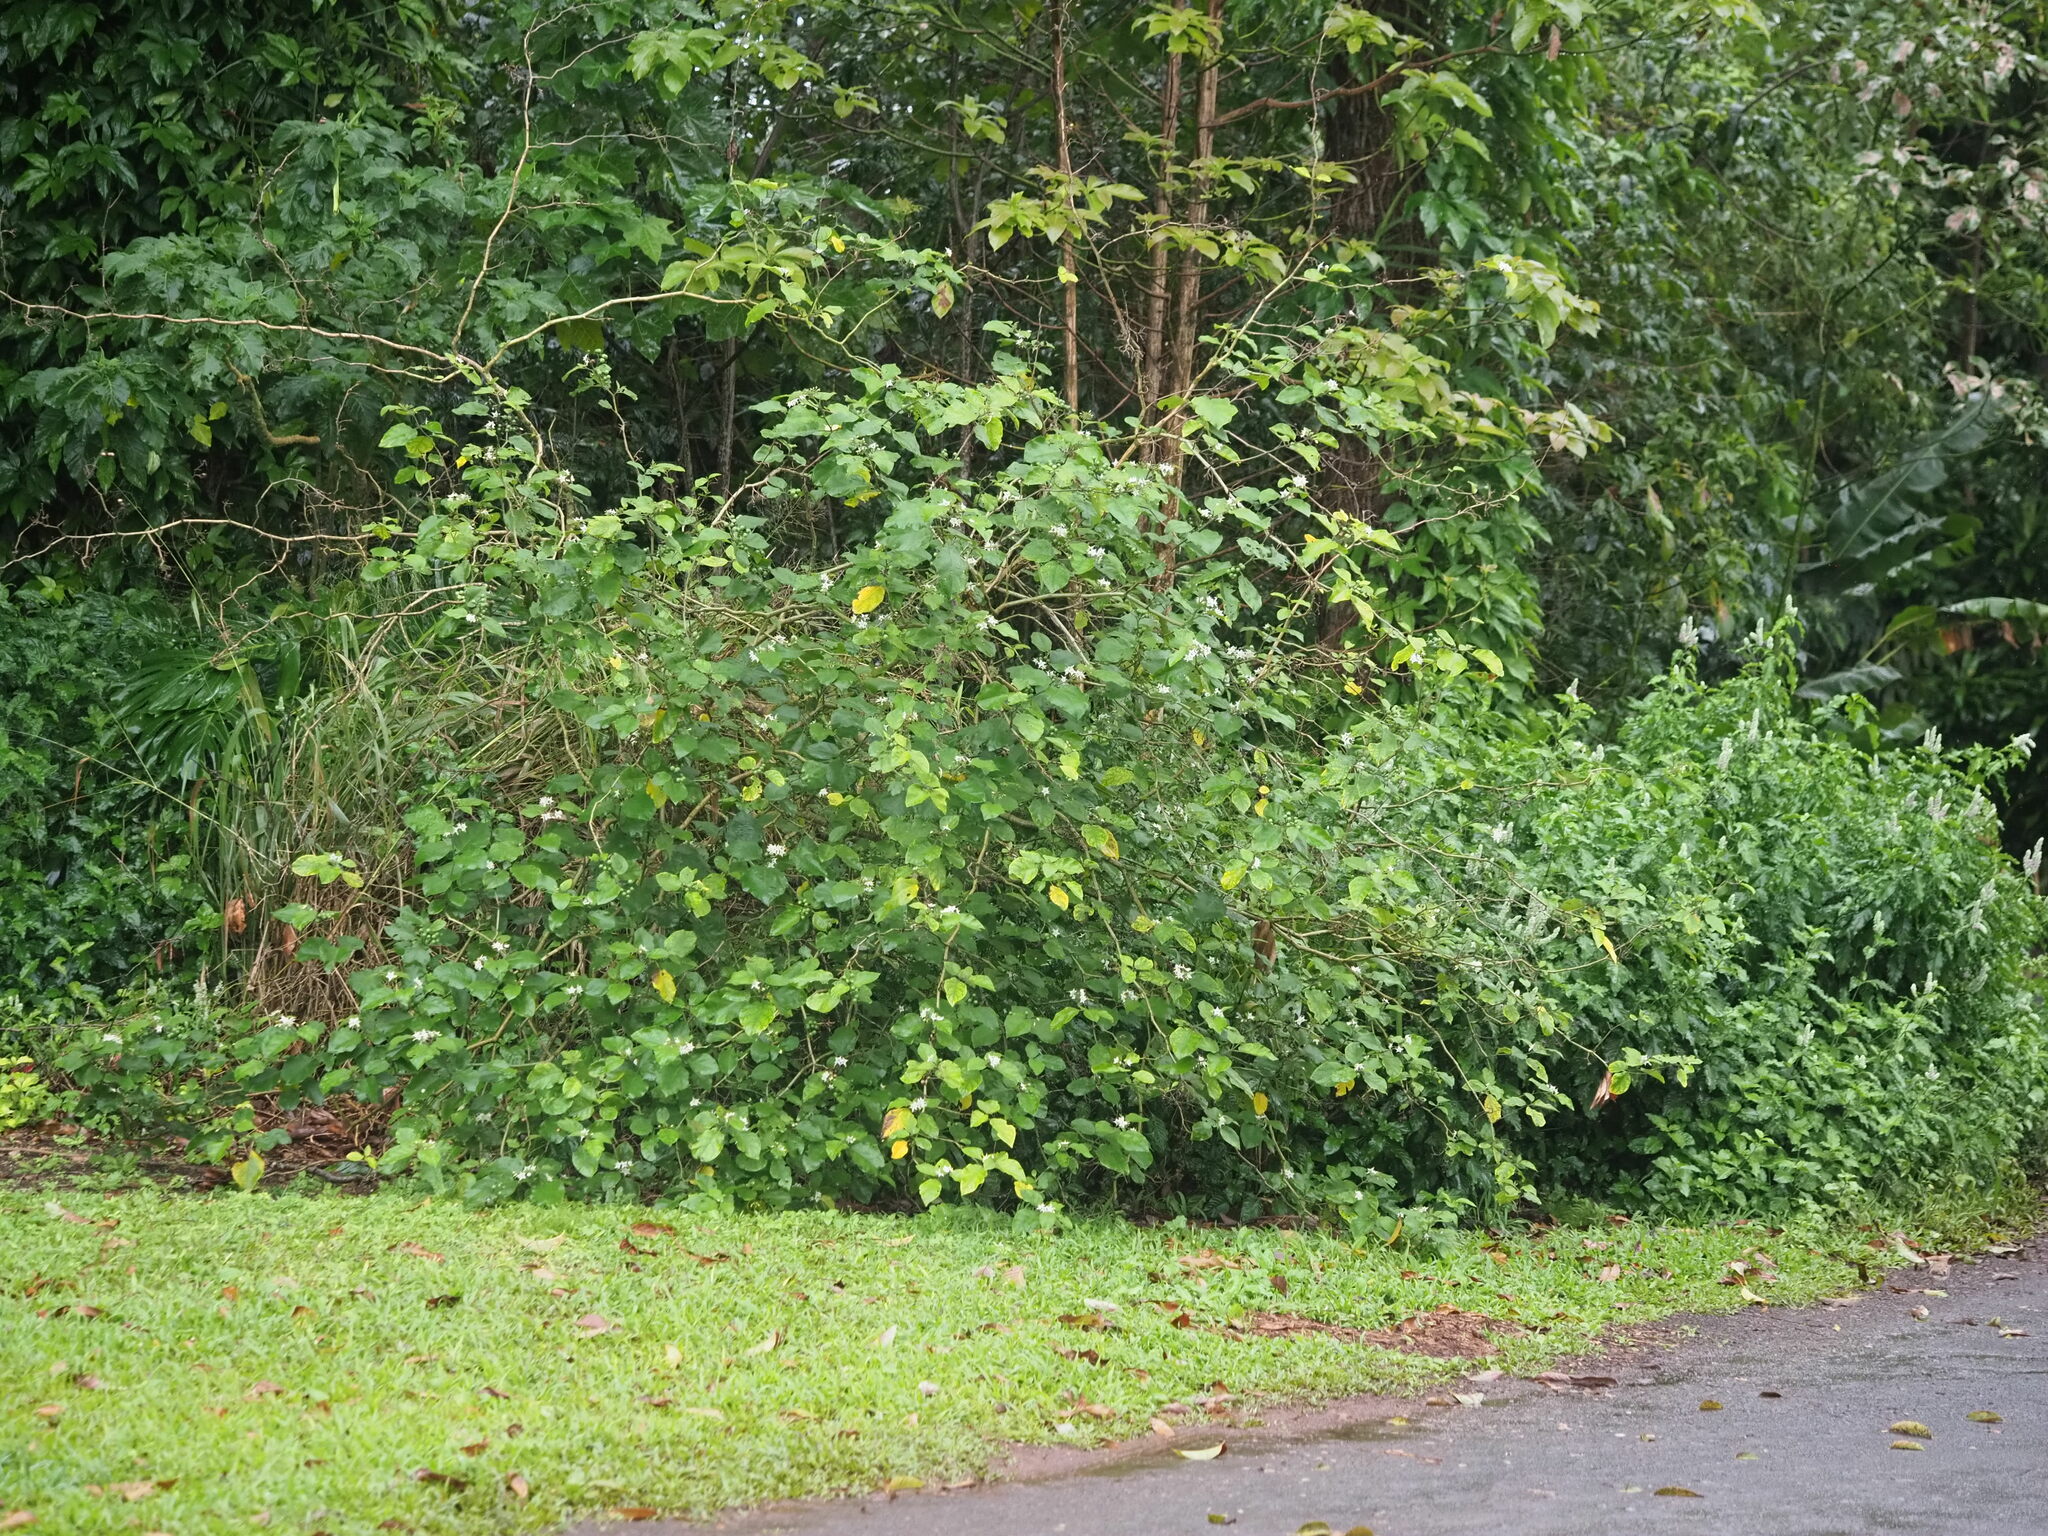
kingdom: Plantae
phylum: Tracheophyta
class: Magnoliopsida
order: Solanales
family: Solanaceae
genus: Solanum
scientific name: Solanum torvum
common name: Turkey berry
